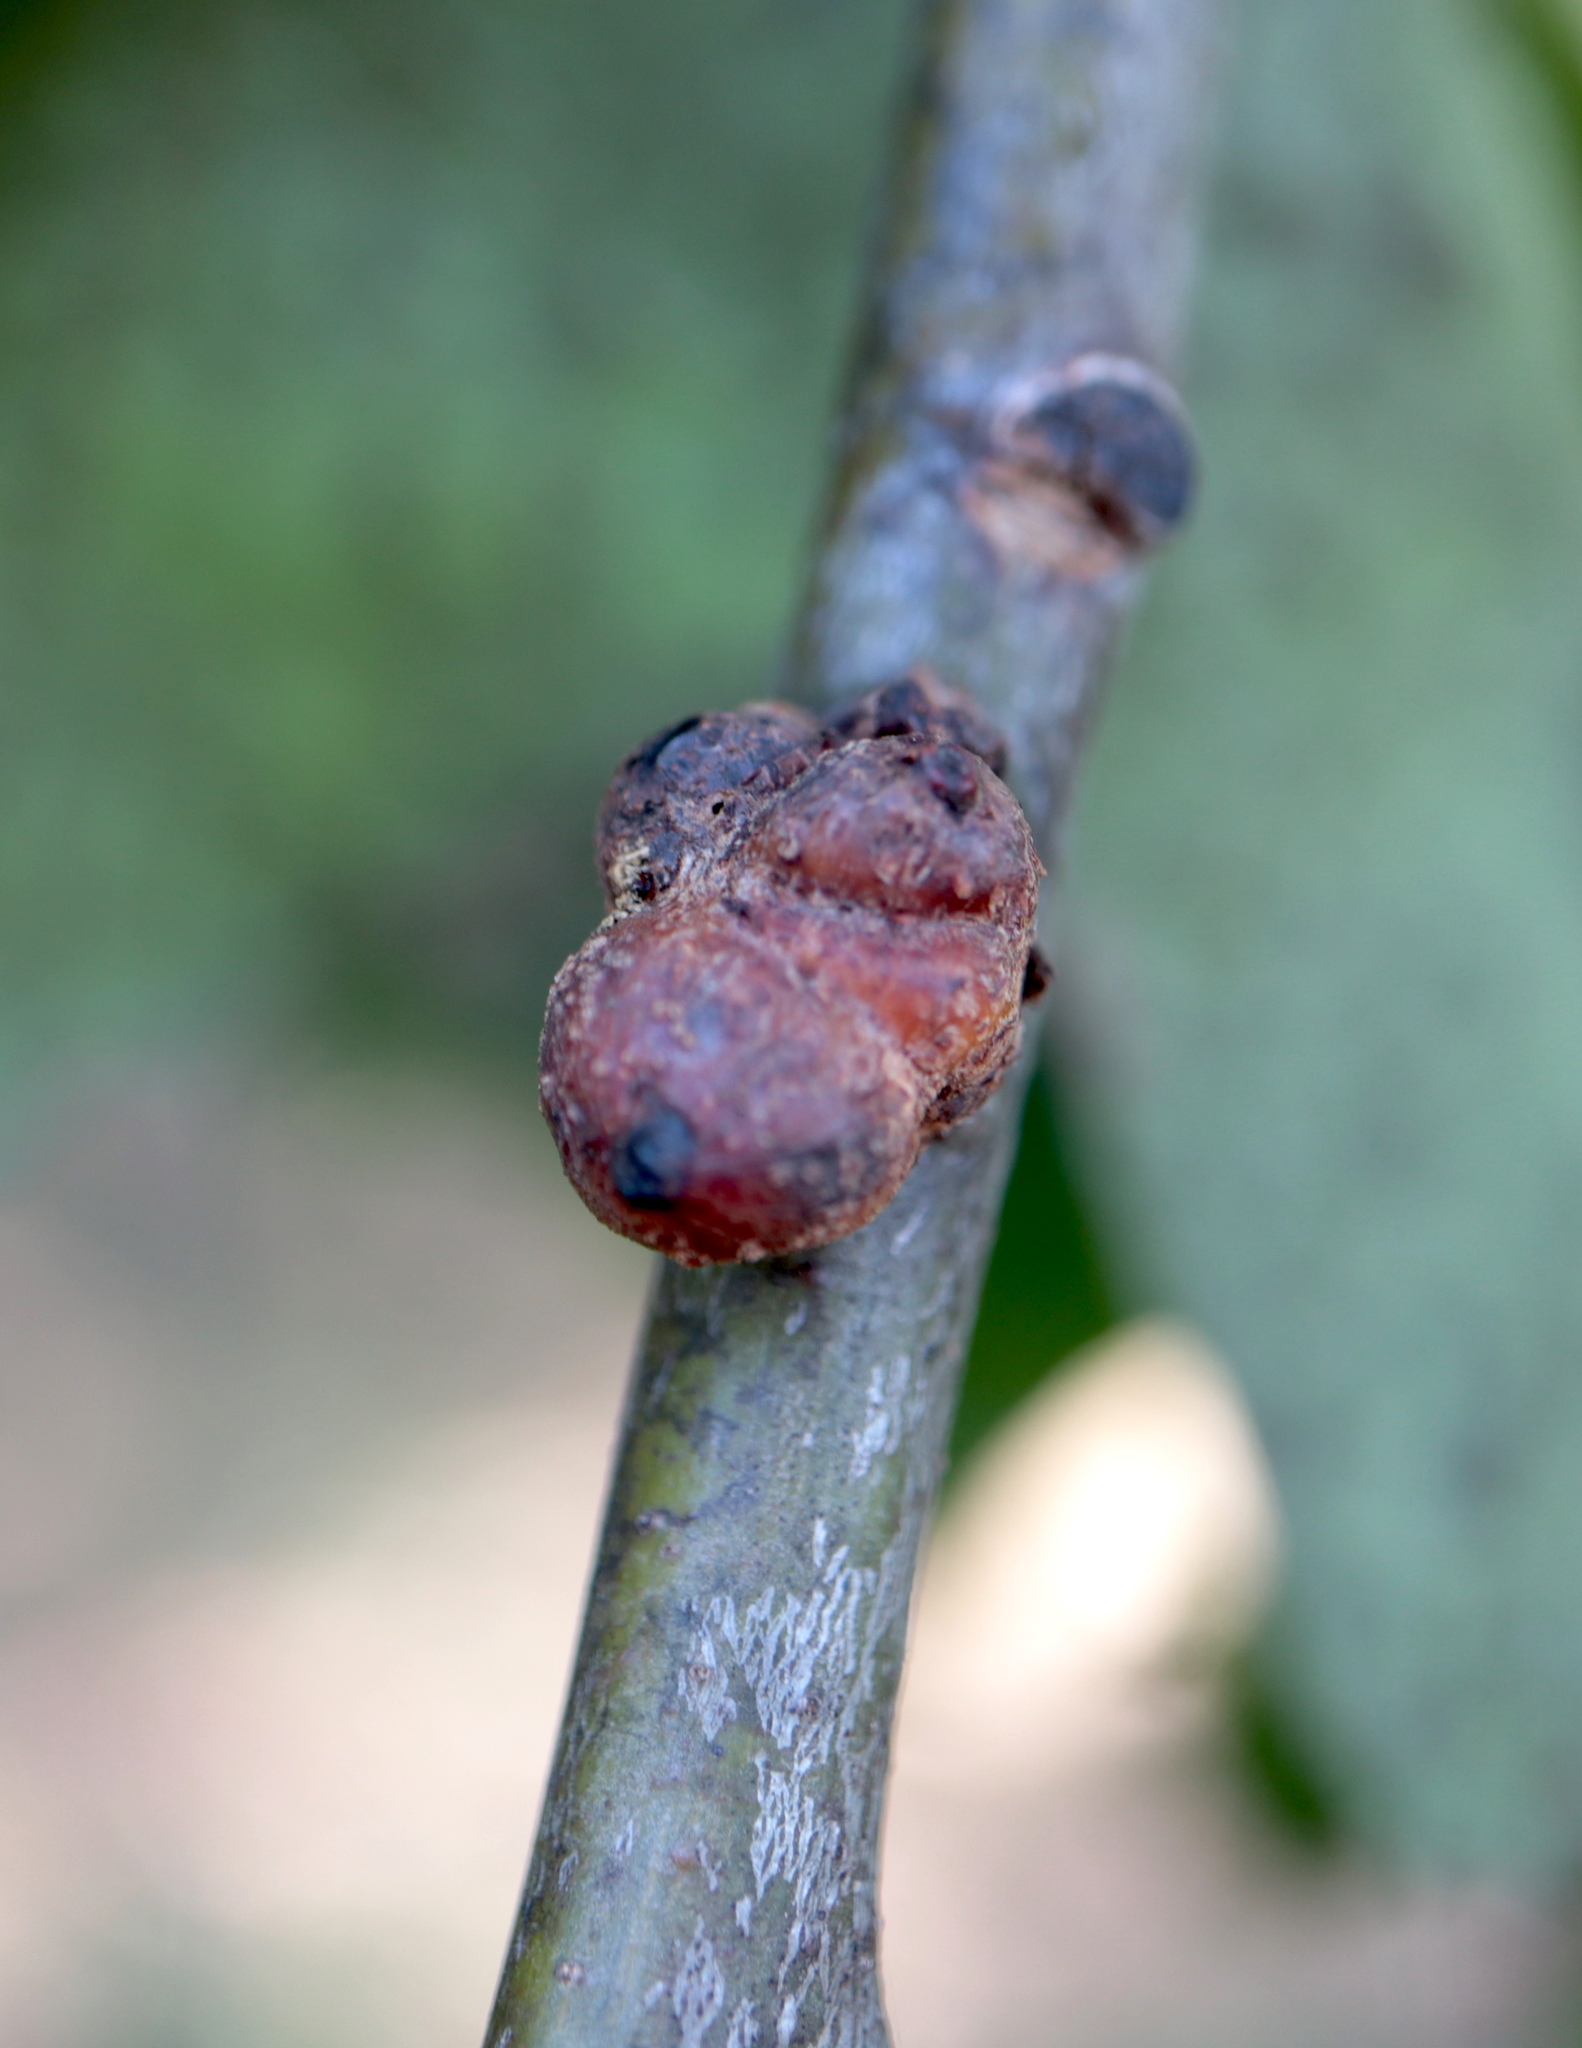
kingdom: Animalia
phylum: Arthropoda
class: Insecta
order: Hymenoptera
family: Cynipidae
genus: Callirhytis
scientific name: Callirhytis
